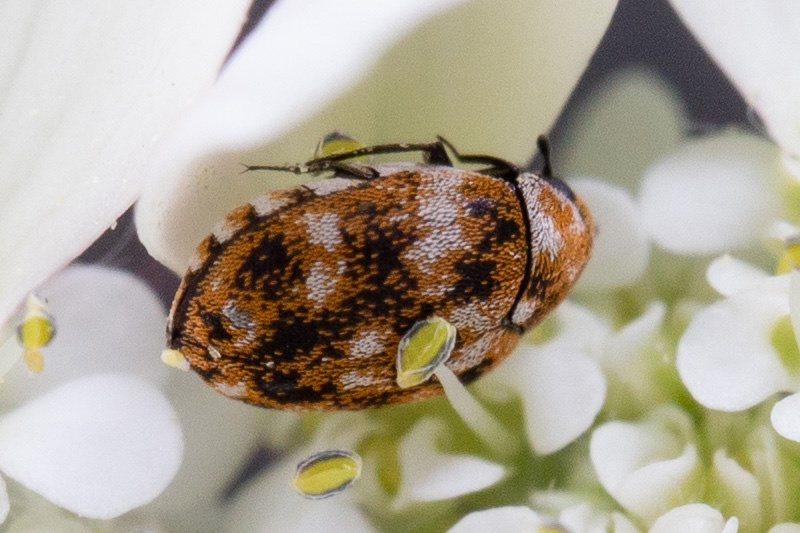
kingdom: Animalia
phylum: Arthropoda
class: Insecta
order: Coleoptera
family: Dermestidae
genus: Anthrenus
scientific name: Anthrenus verbasci
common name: Varied carpet beetle
